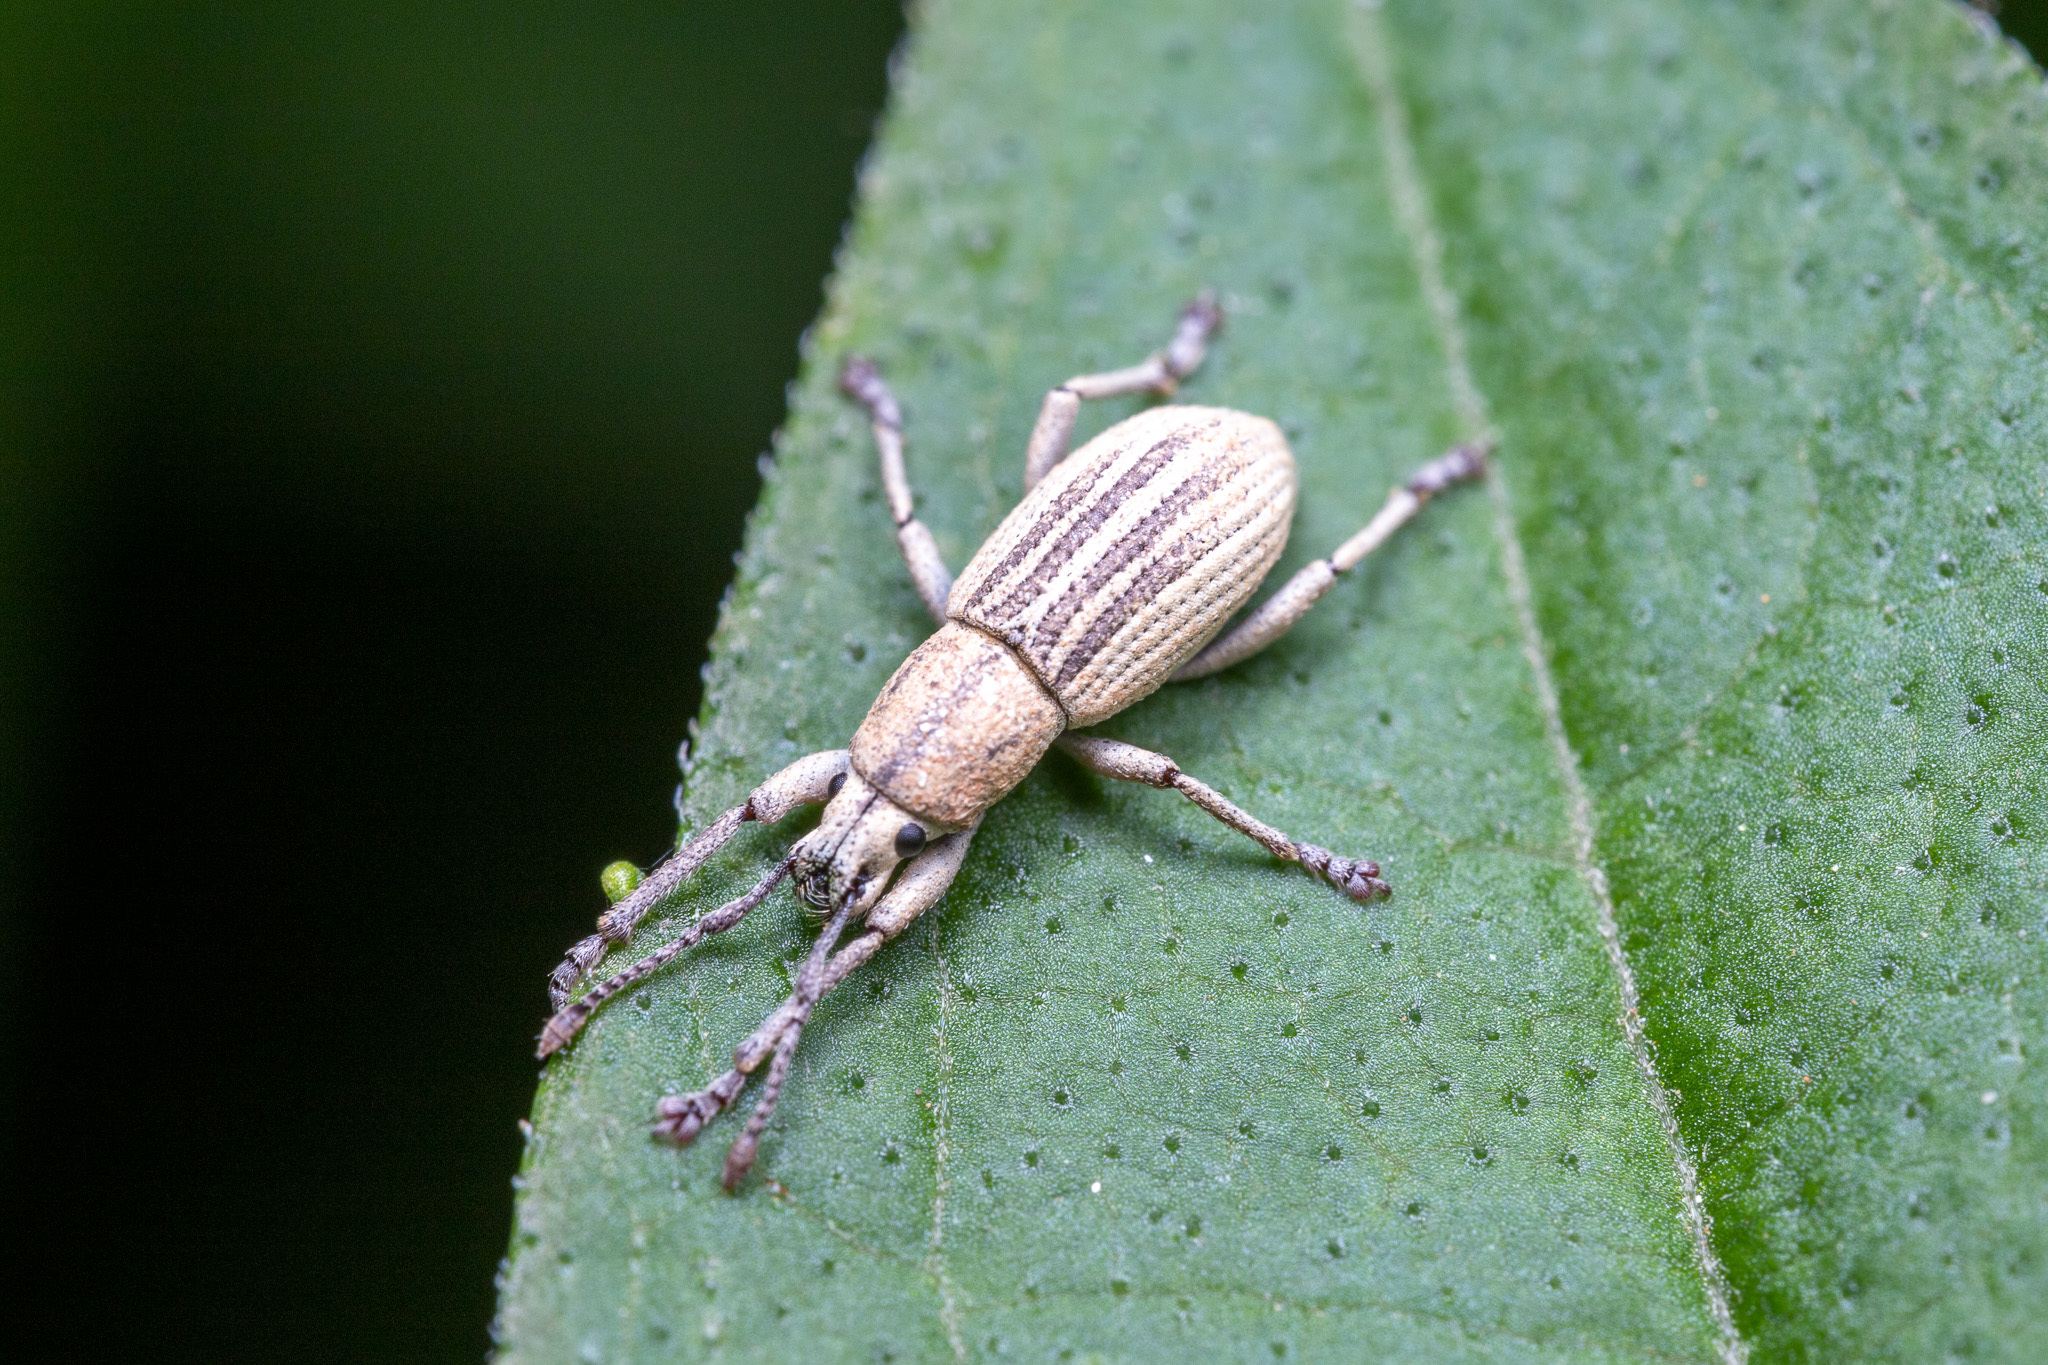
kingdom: Animalia
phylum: Arthropoda
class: Insecta
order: Coleoptera
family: Curculionidae
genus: Aphrastus
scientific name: Aphrastus taeniatus
